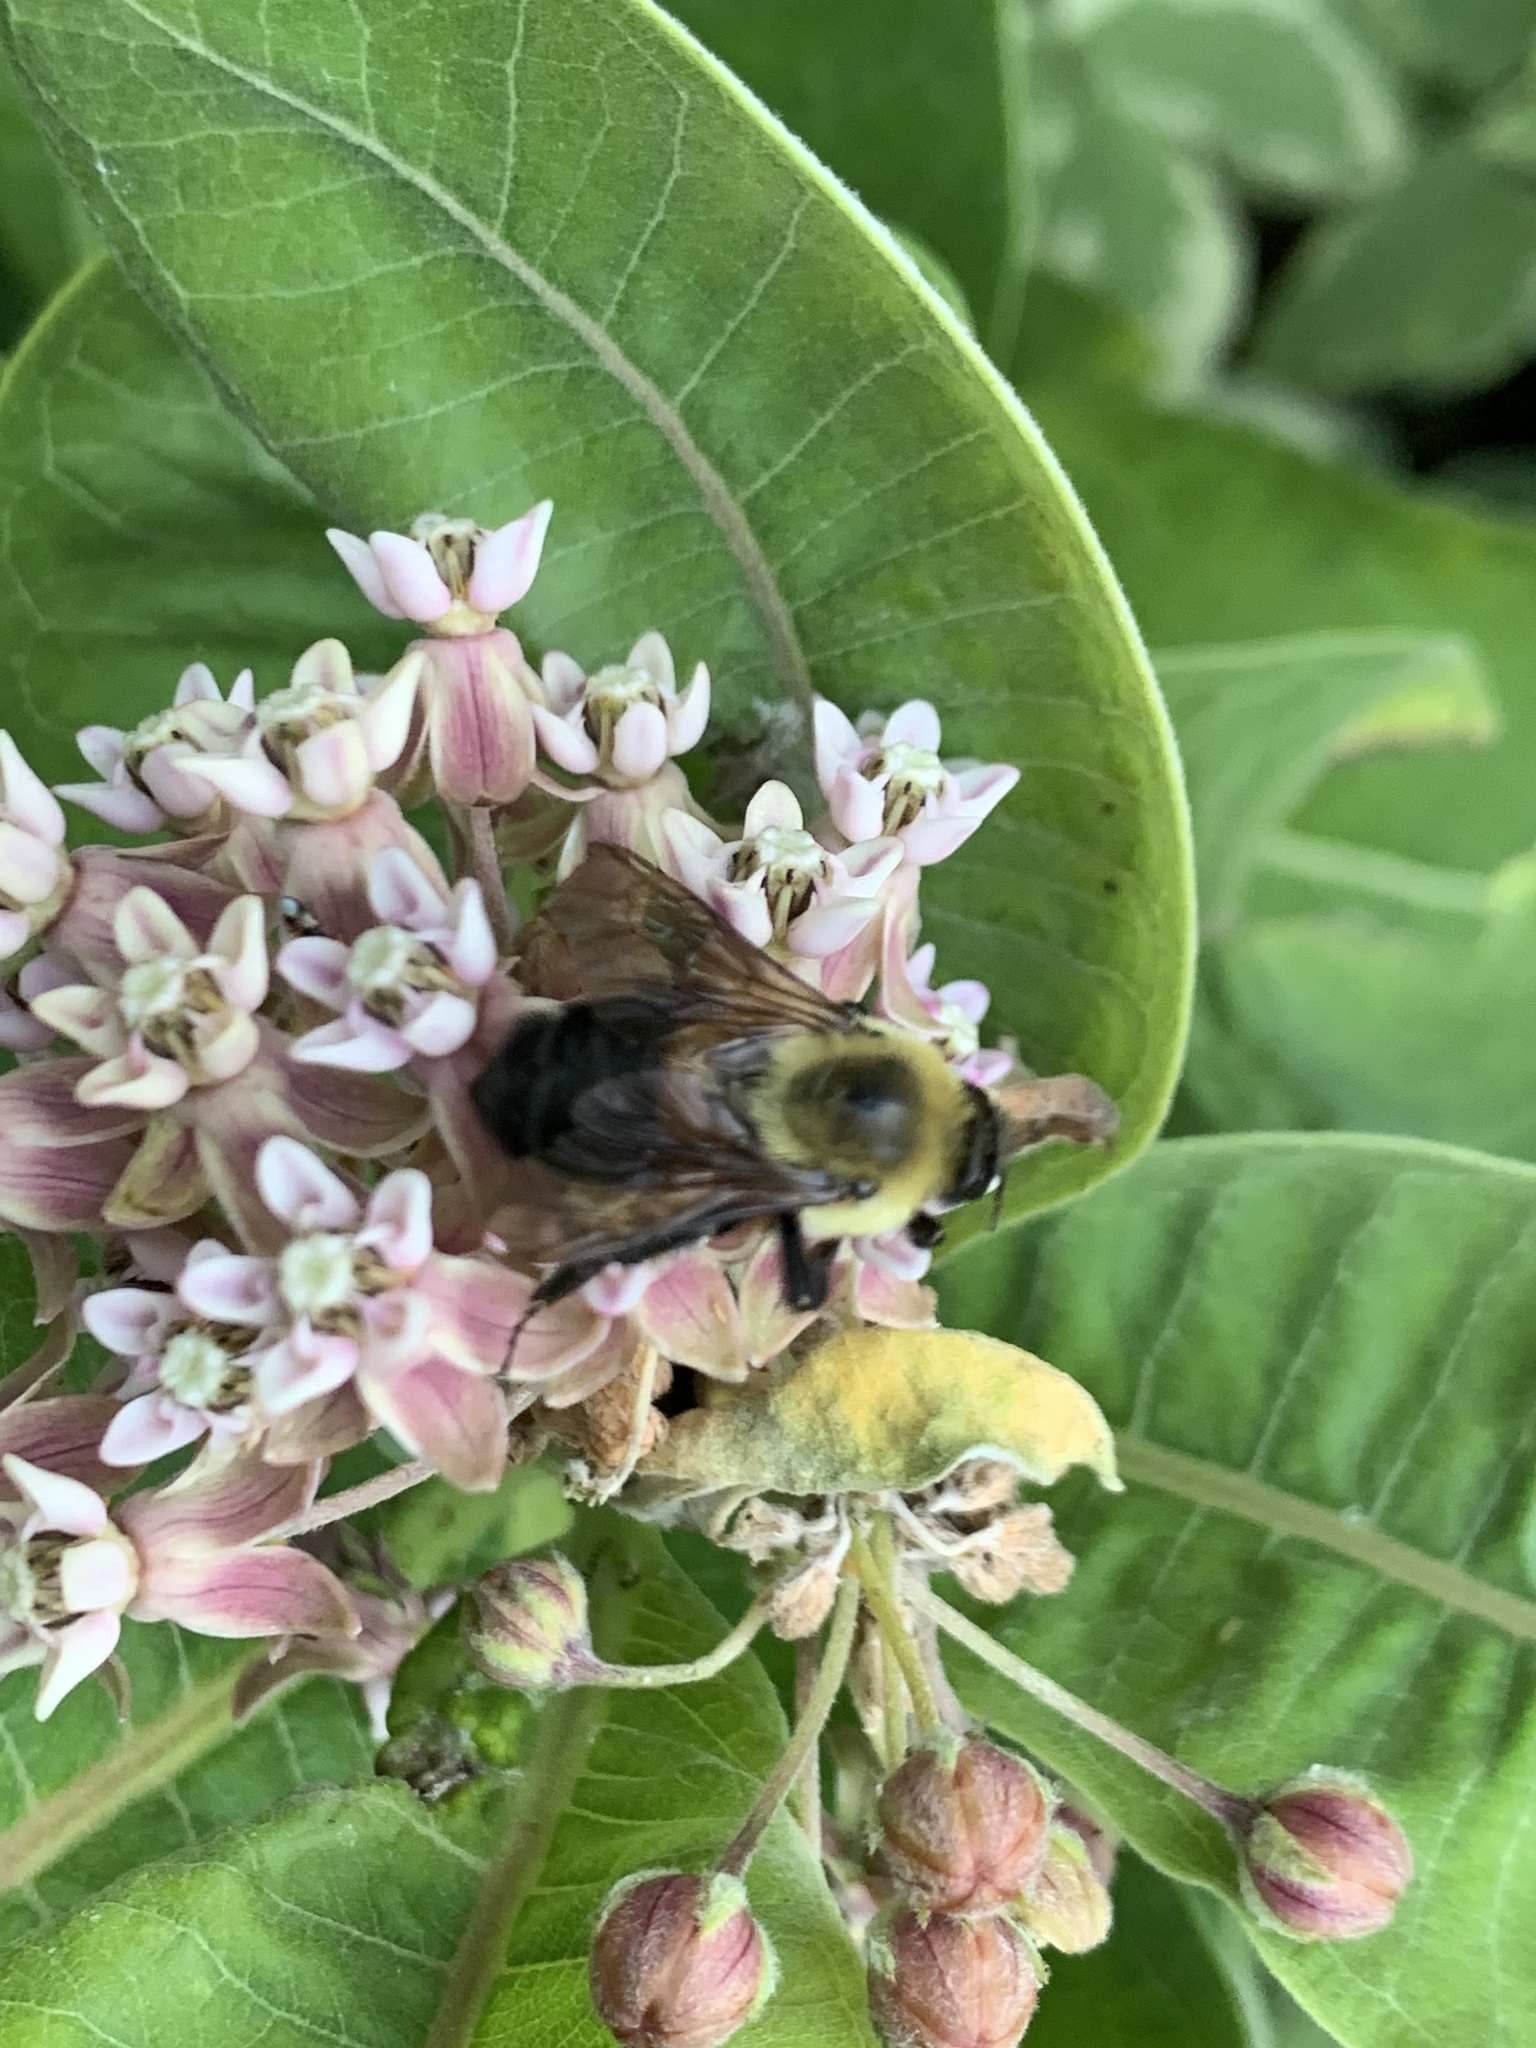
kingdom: Animalia
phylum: Arthropoda
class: Insecta
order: Hymenoptera
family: Apidae
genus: Bombus
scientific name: Bombus griseocollis
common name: Brown-belted bumble bee
